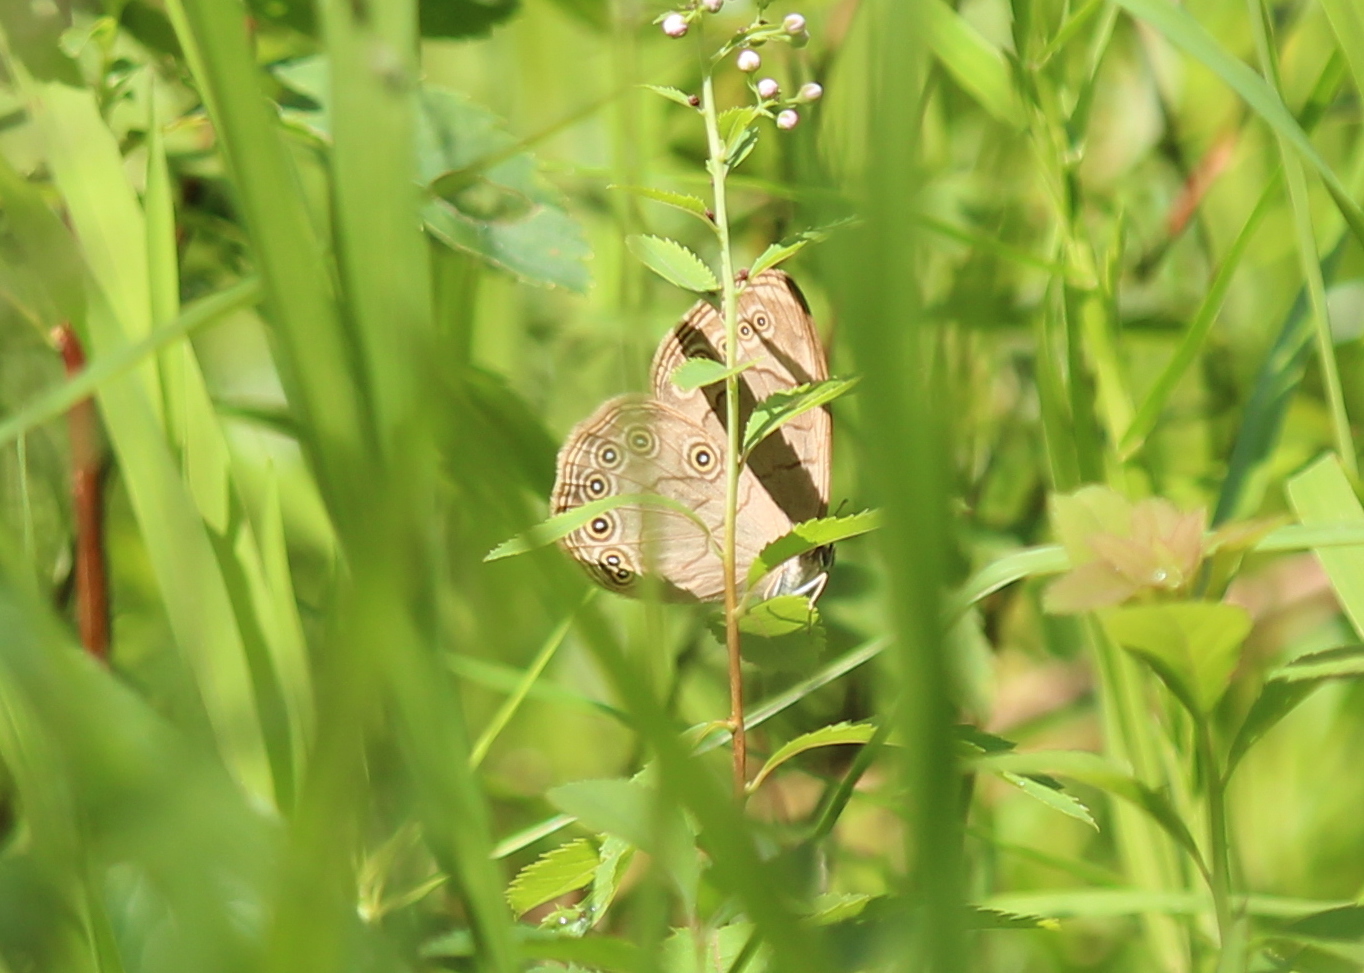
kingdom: Animalia
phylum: Arthropoda
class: Insecta
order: Lepidoptera
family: Nymphalidae
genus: Lethe
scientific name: Lethe eurydice
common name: Eyed brown
